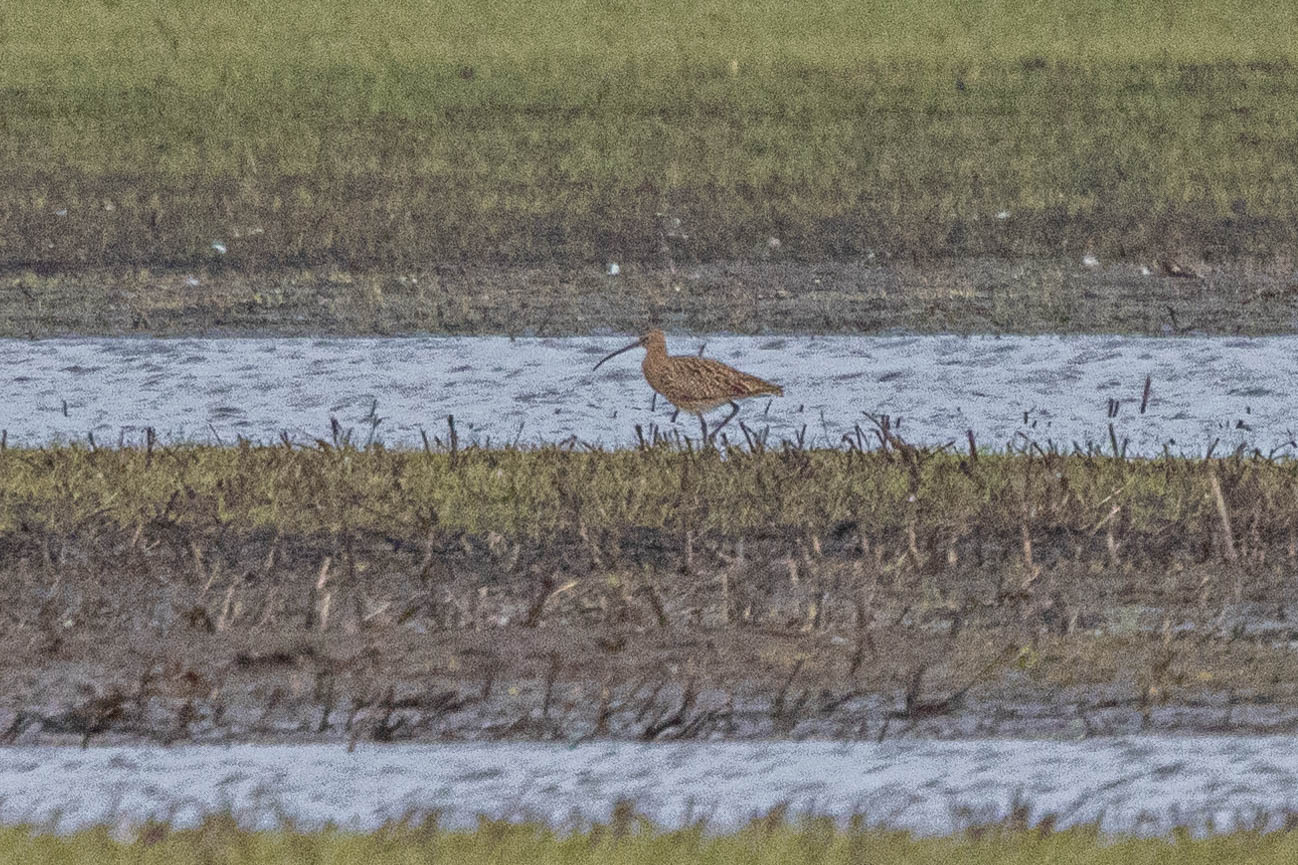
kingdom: Animalia
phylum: Chordata
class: Aves
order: Charadriiformes
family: Scolopacidae
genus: Numenius
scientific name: Numenius arquata
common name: Eurasian curlew
